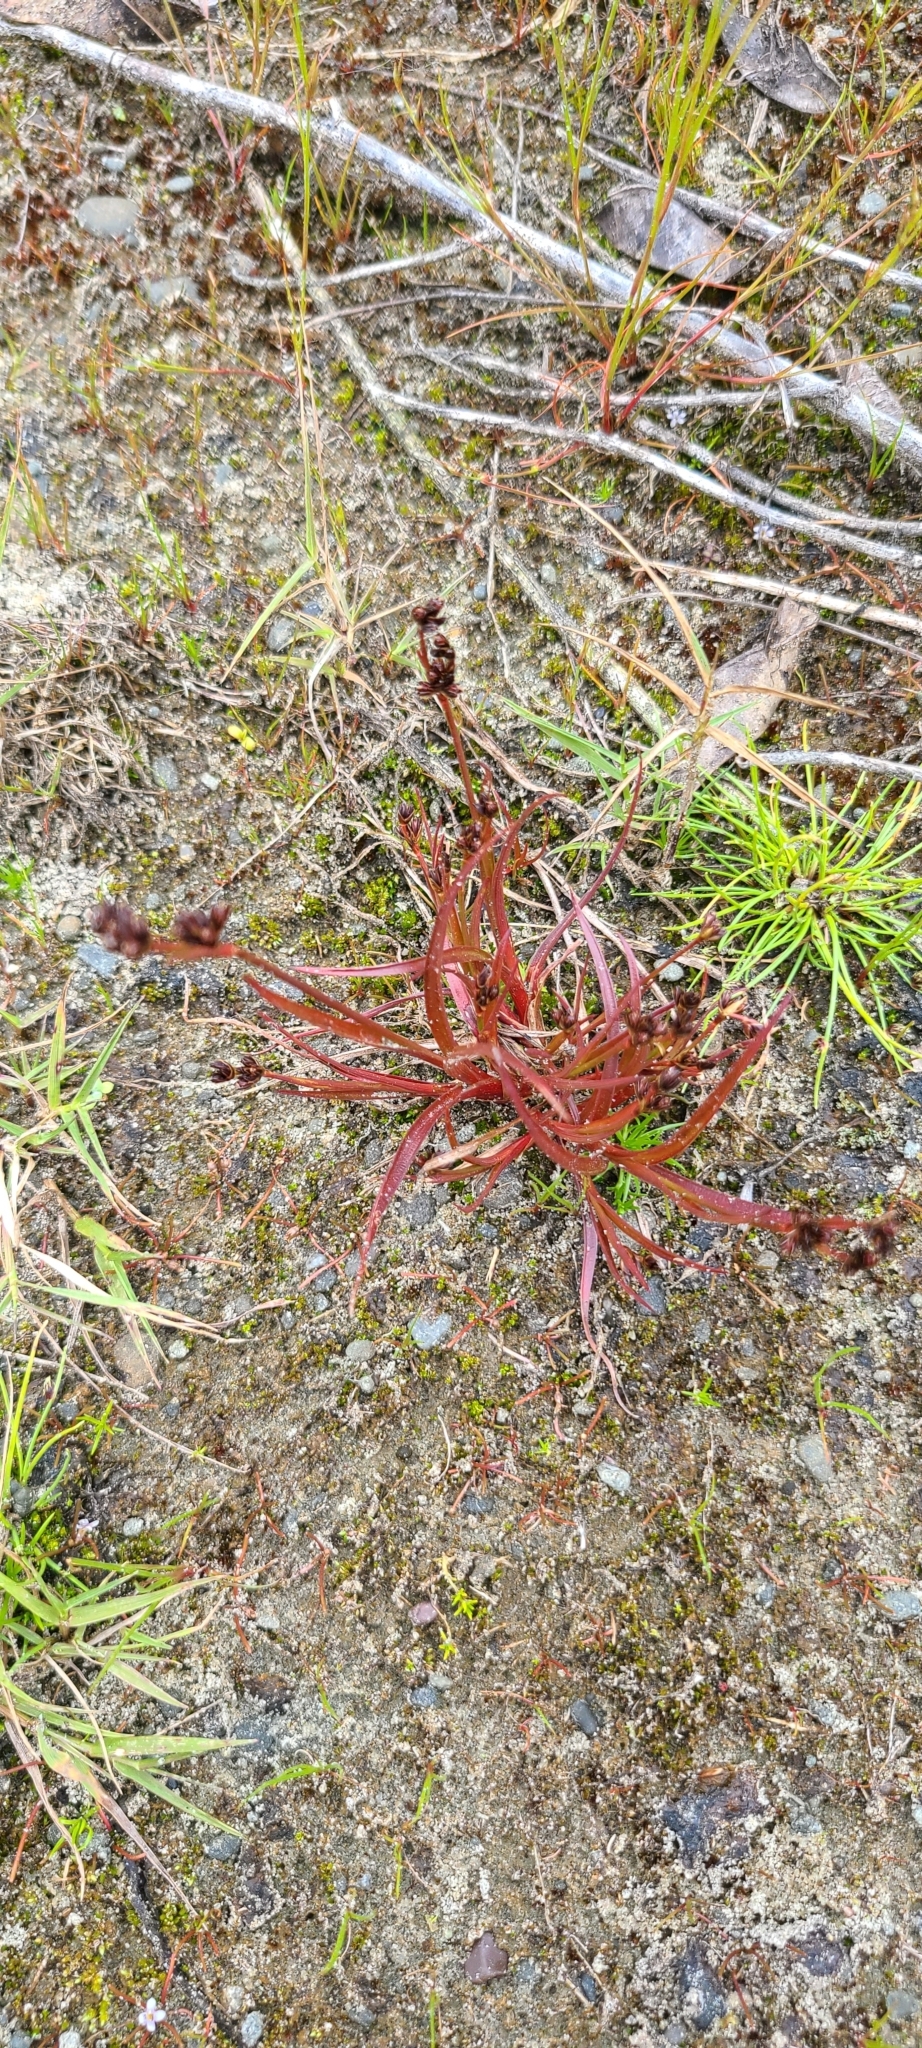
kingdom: Plantae
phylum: Tracheophyta
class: Liliopsida
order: Poales
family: Juncaceae
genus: Juncus
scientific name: Juncus caespiticius
